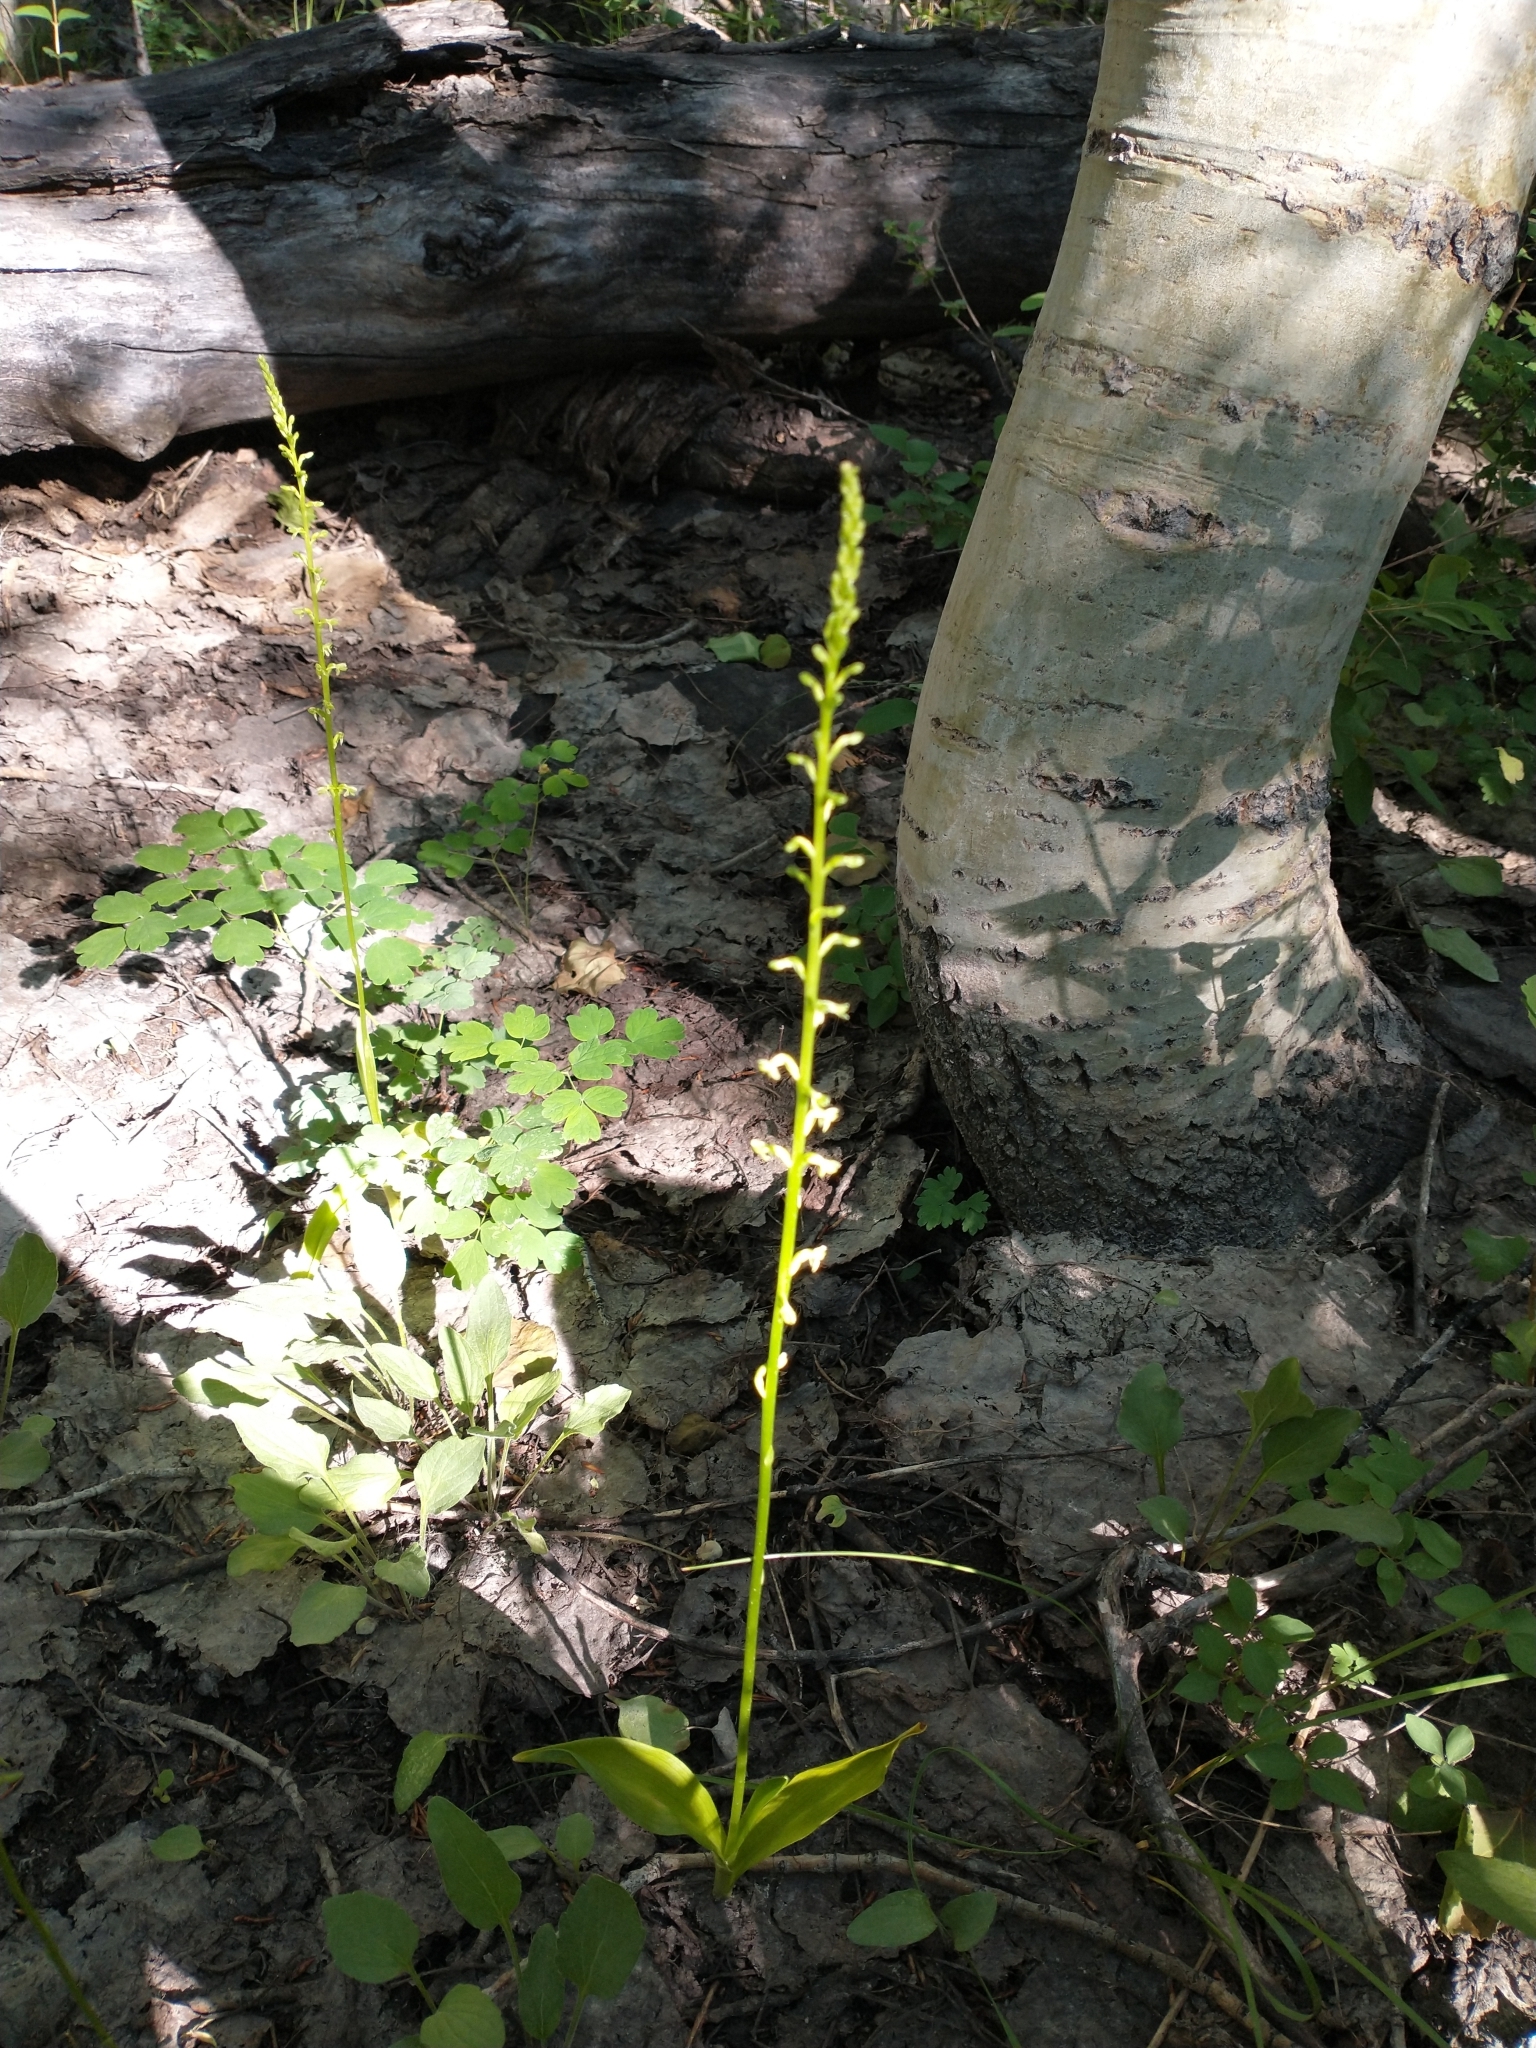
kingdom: Plantae
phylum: Tracheophyta
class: Liliopsida
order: Asparagales
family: Orchidaceae
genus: Platanthera
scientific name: Platanthera unalascensis
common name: Alaska bog orchid
